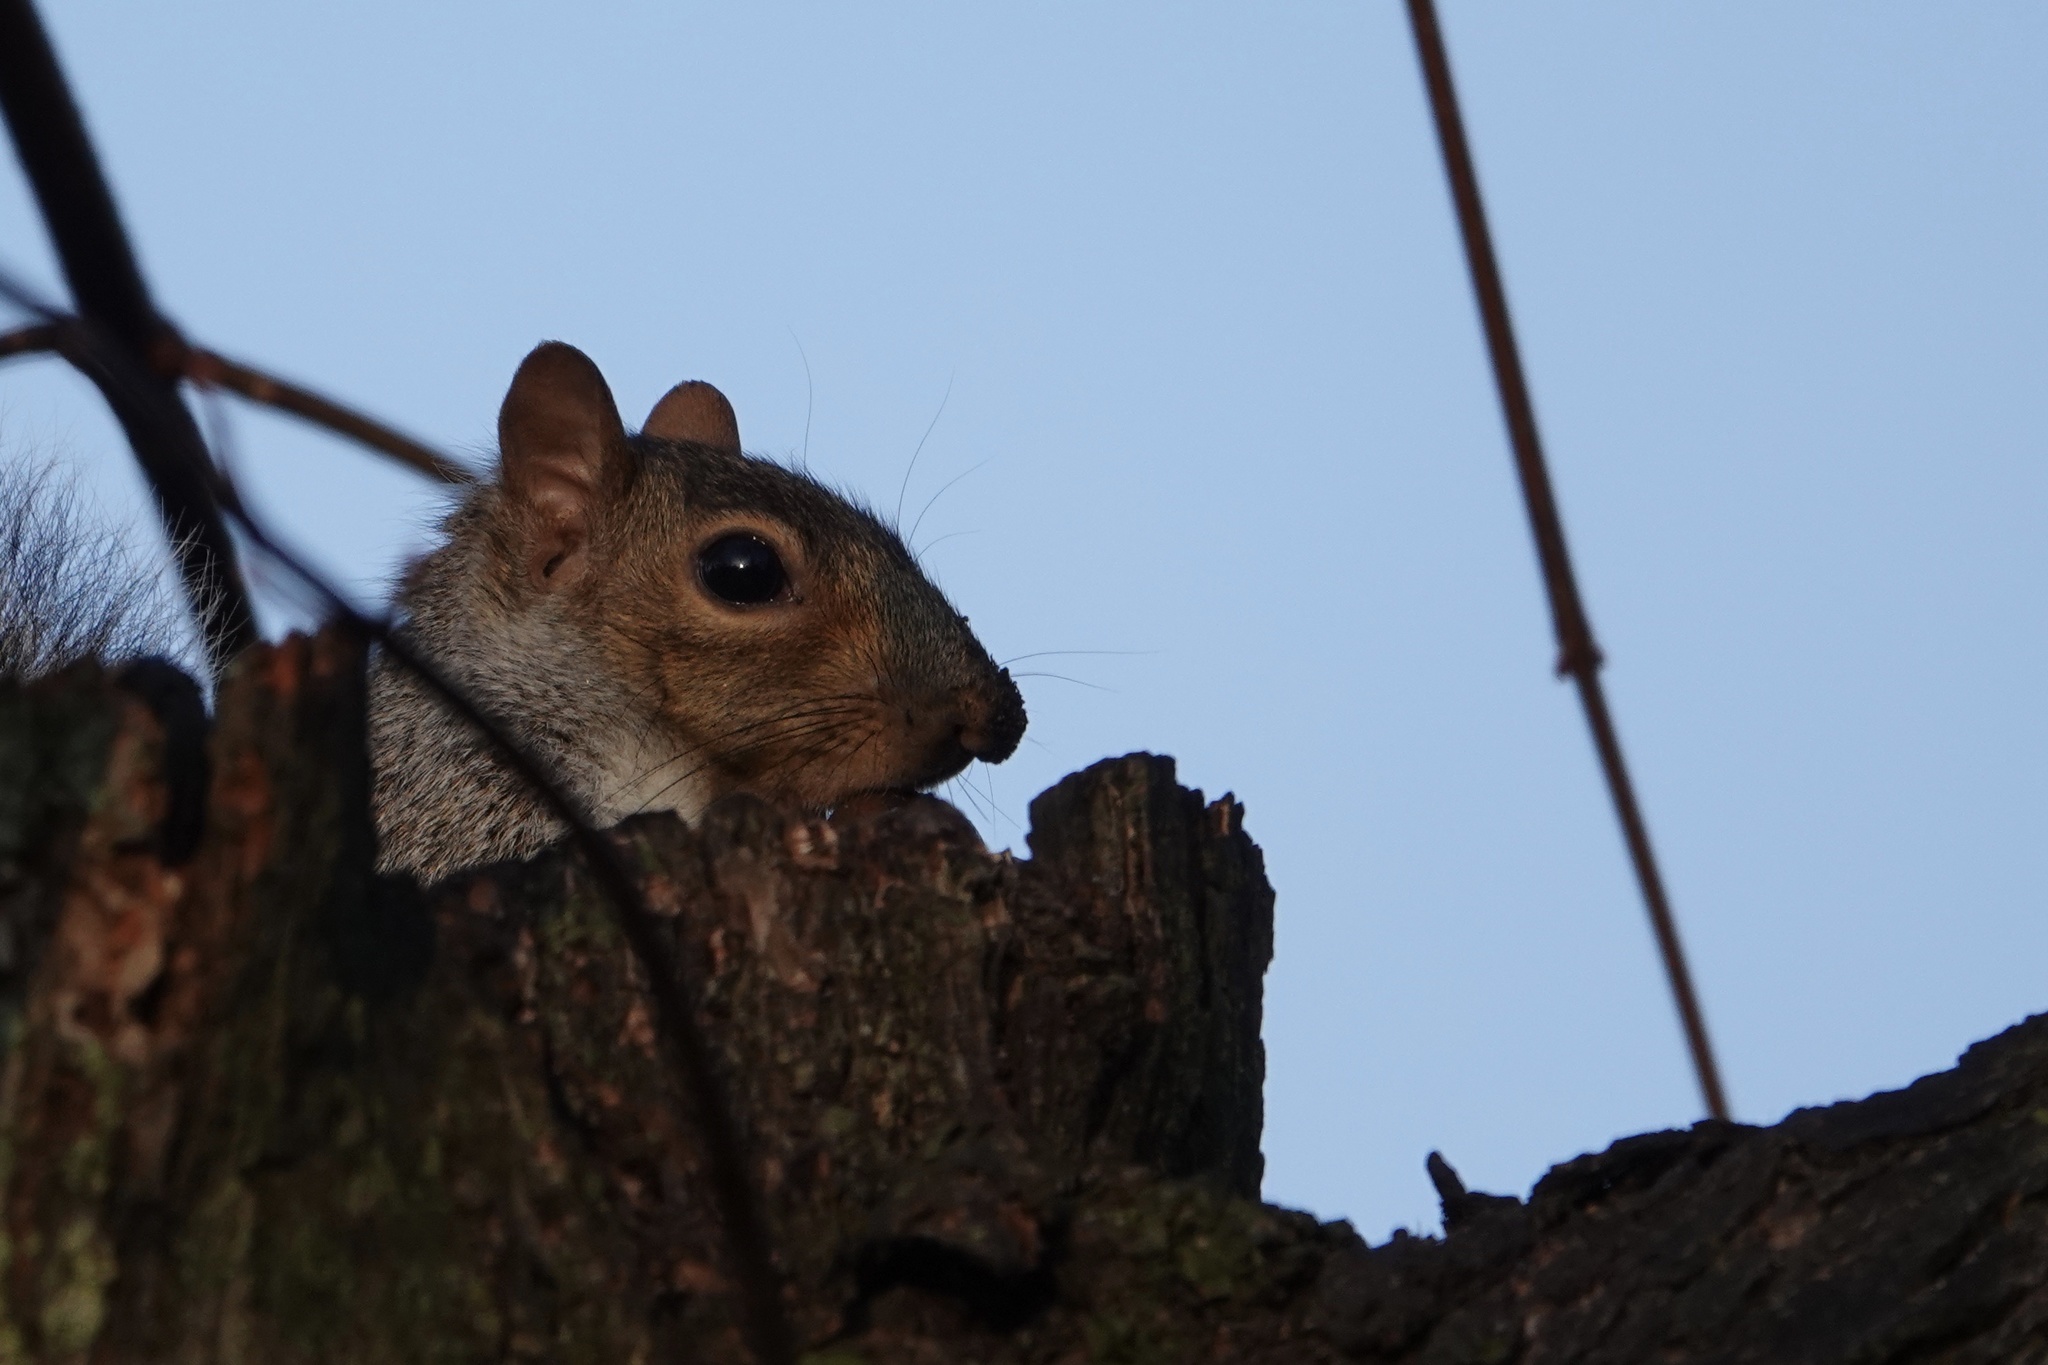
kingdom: Animalia
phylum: Chordata
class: Mammalia
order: Rodentia
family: Sciuridae
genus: Sciurus
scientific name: Sciurus carolinensis
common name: Eastern gray squirrel
